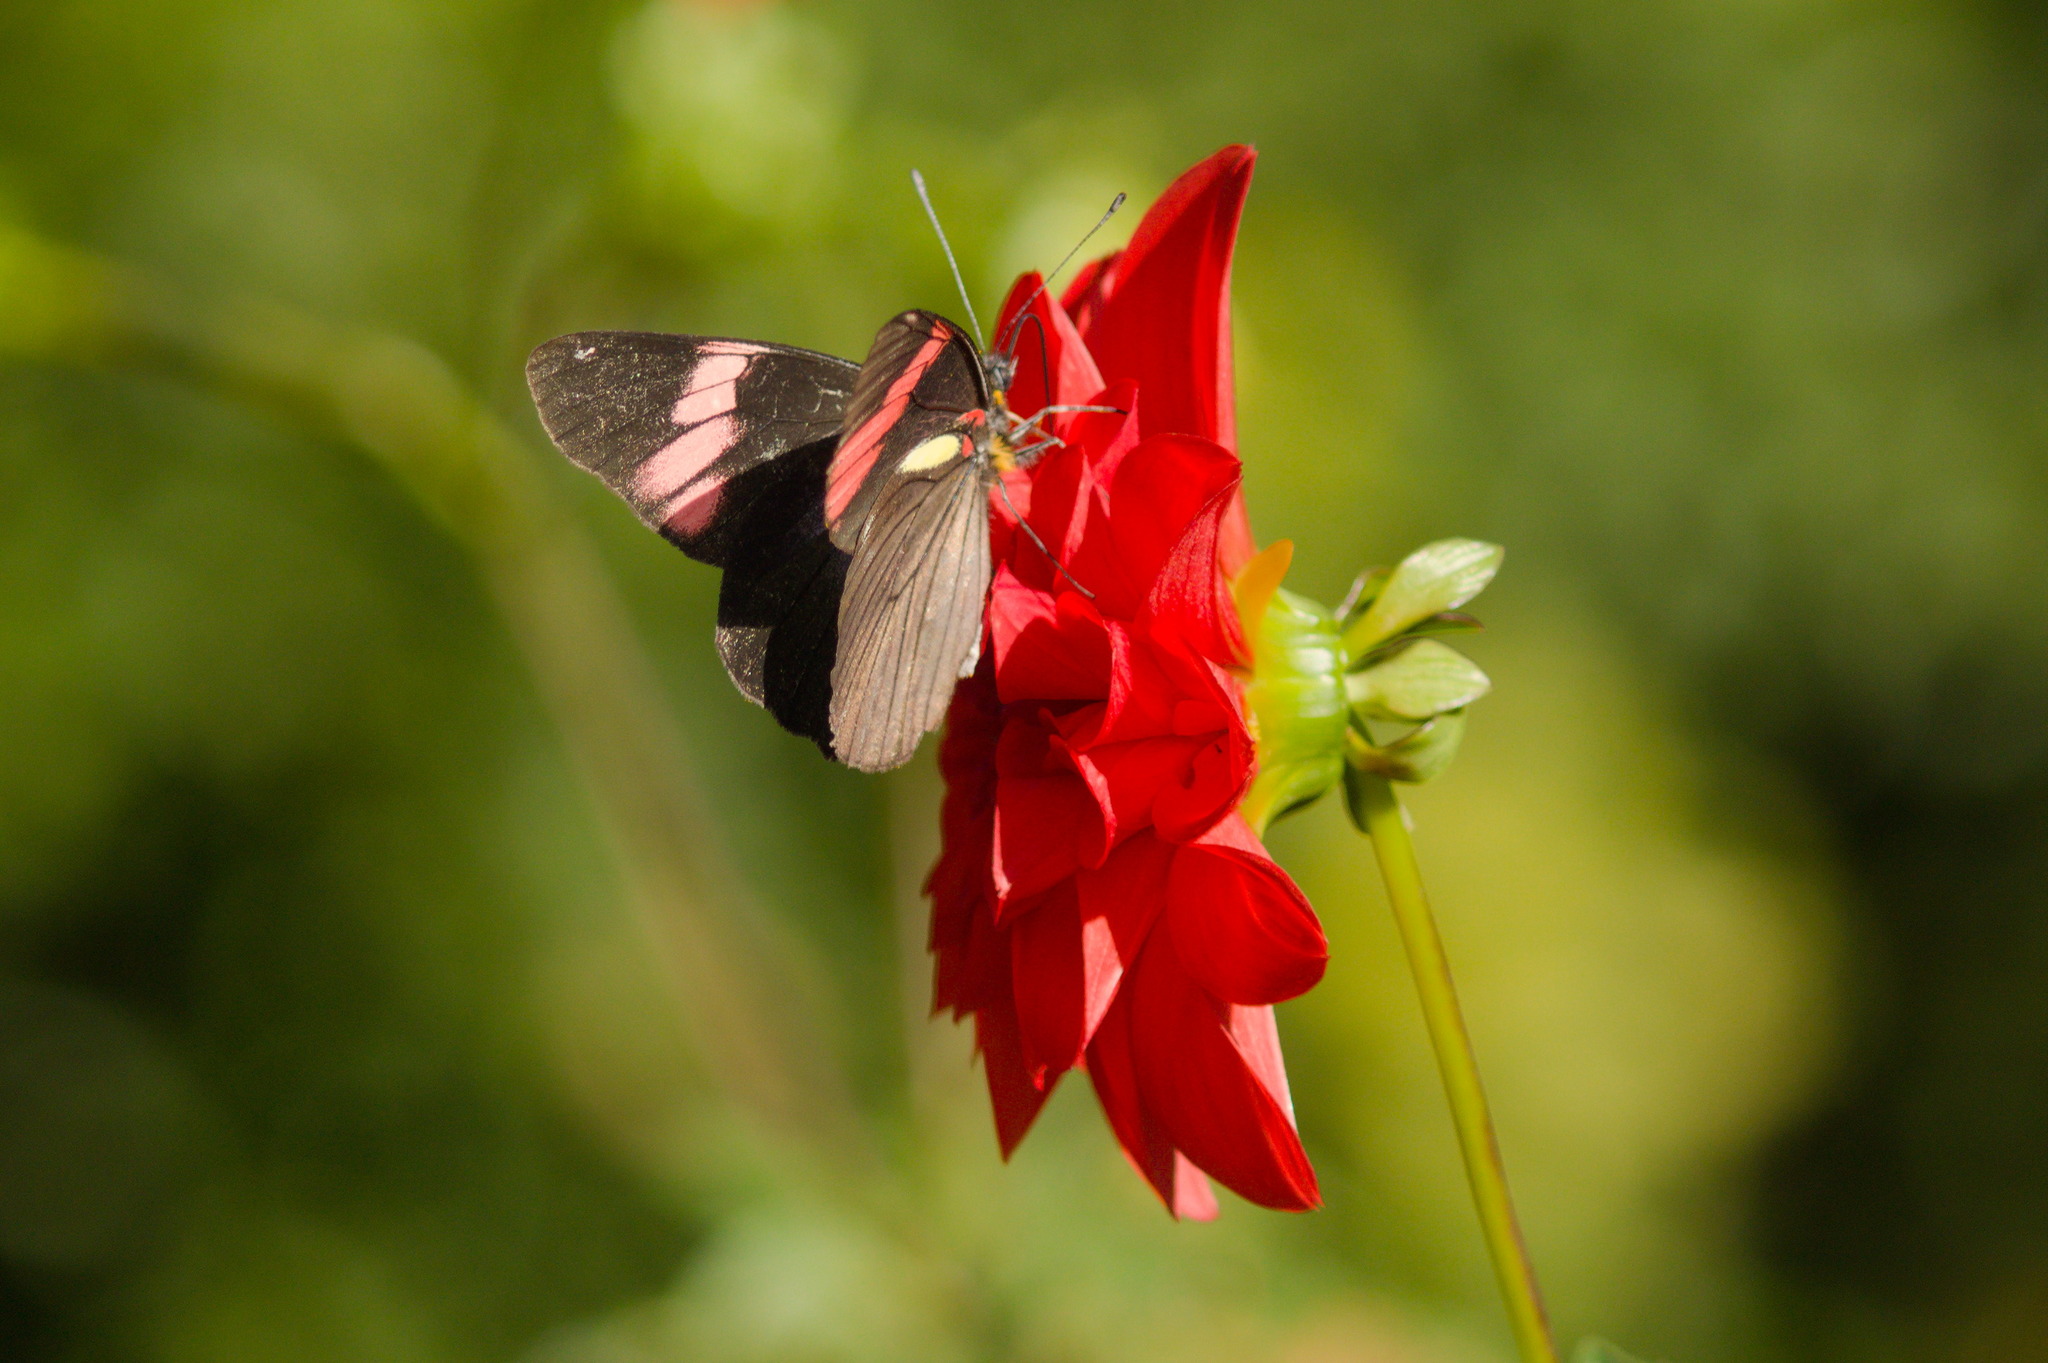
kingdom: Animalia
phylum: Arthropoda
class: Insecta
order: Lepidoptera
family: Pieridae
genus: Pereute
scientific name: Pereute swainsoni
